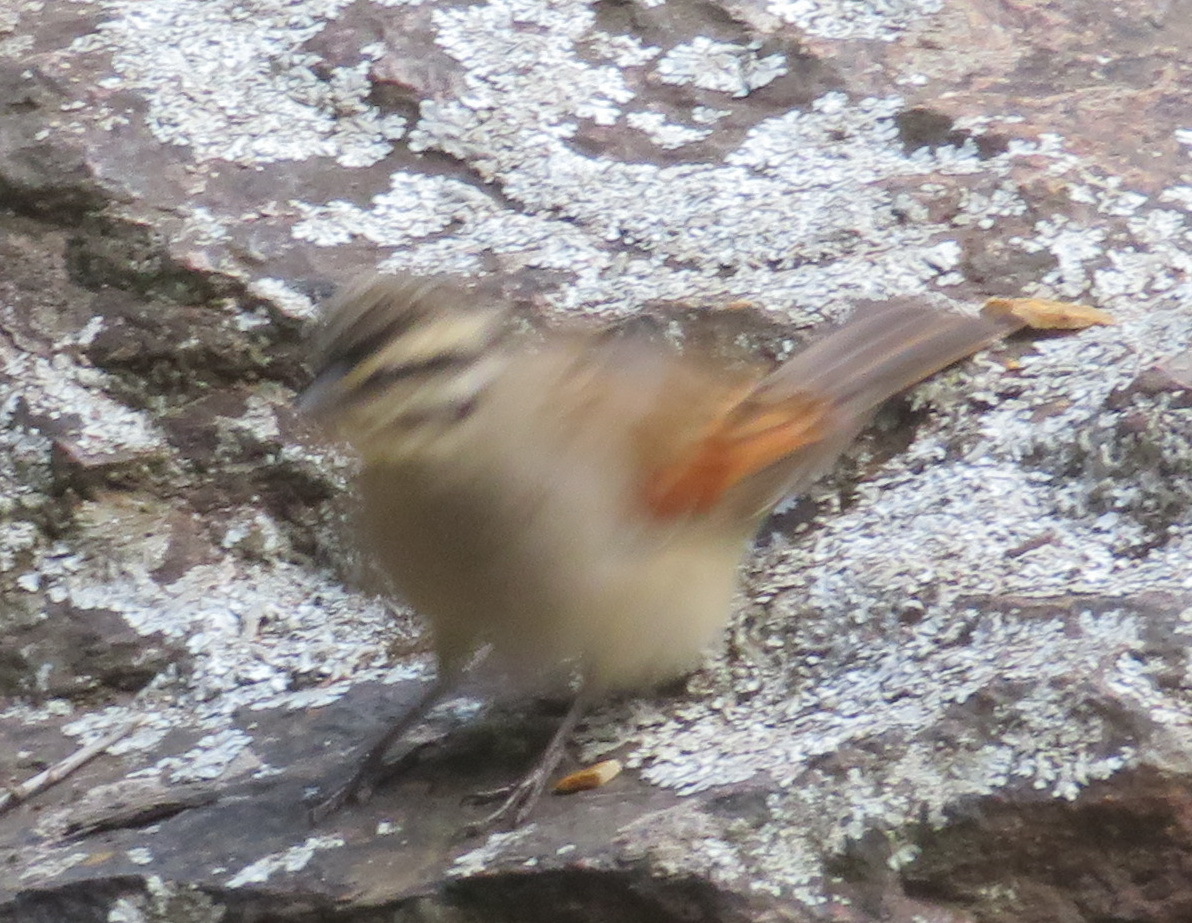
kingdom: Animalia
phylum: Chordata
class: Aves
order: Passeriformes
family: Emberizidae
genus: Emberiza
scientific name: Emberiza capensis
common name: Cape bunting
